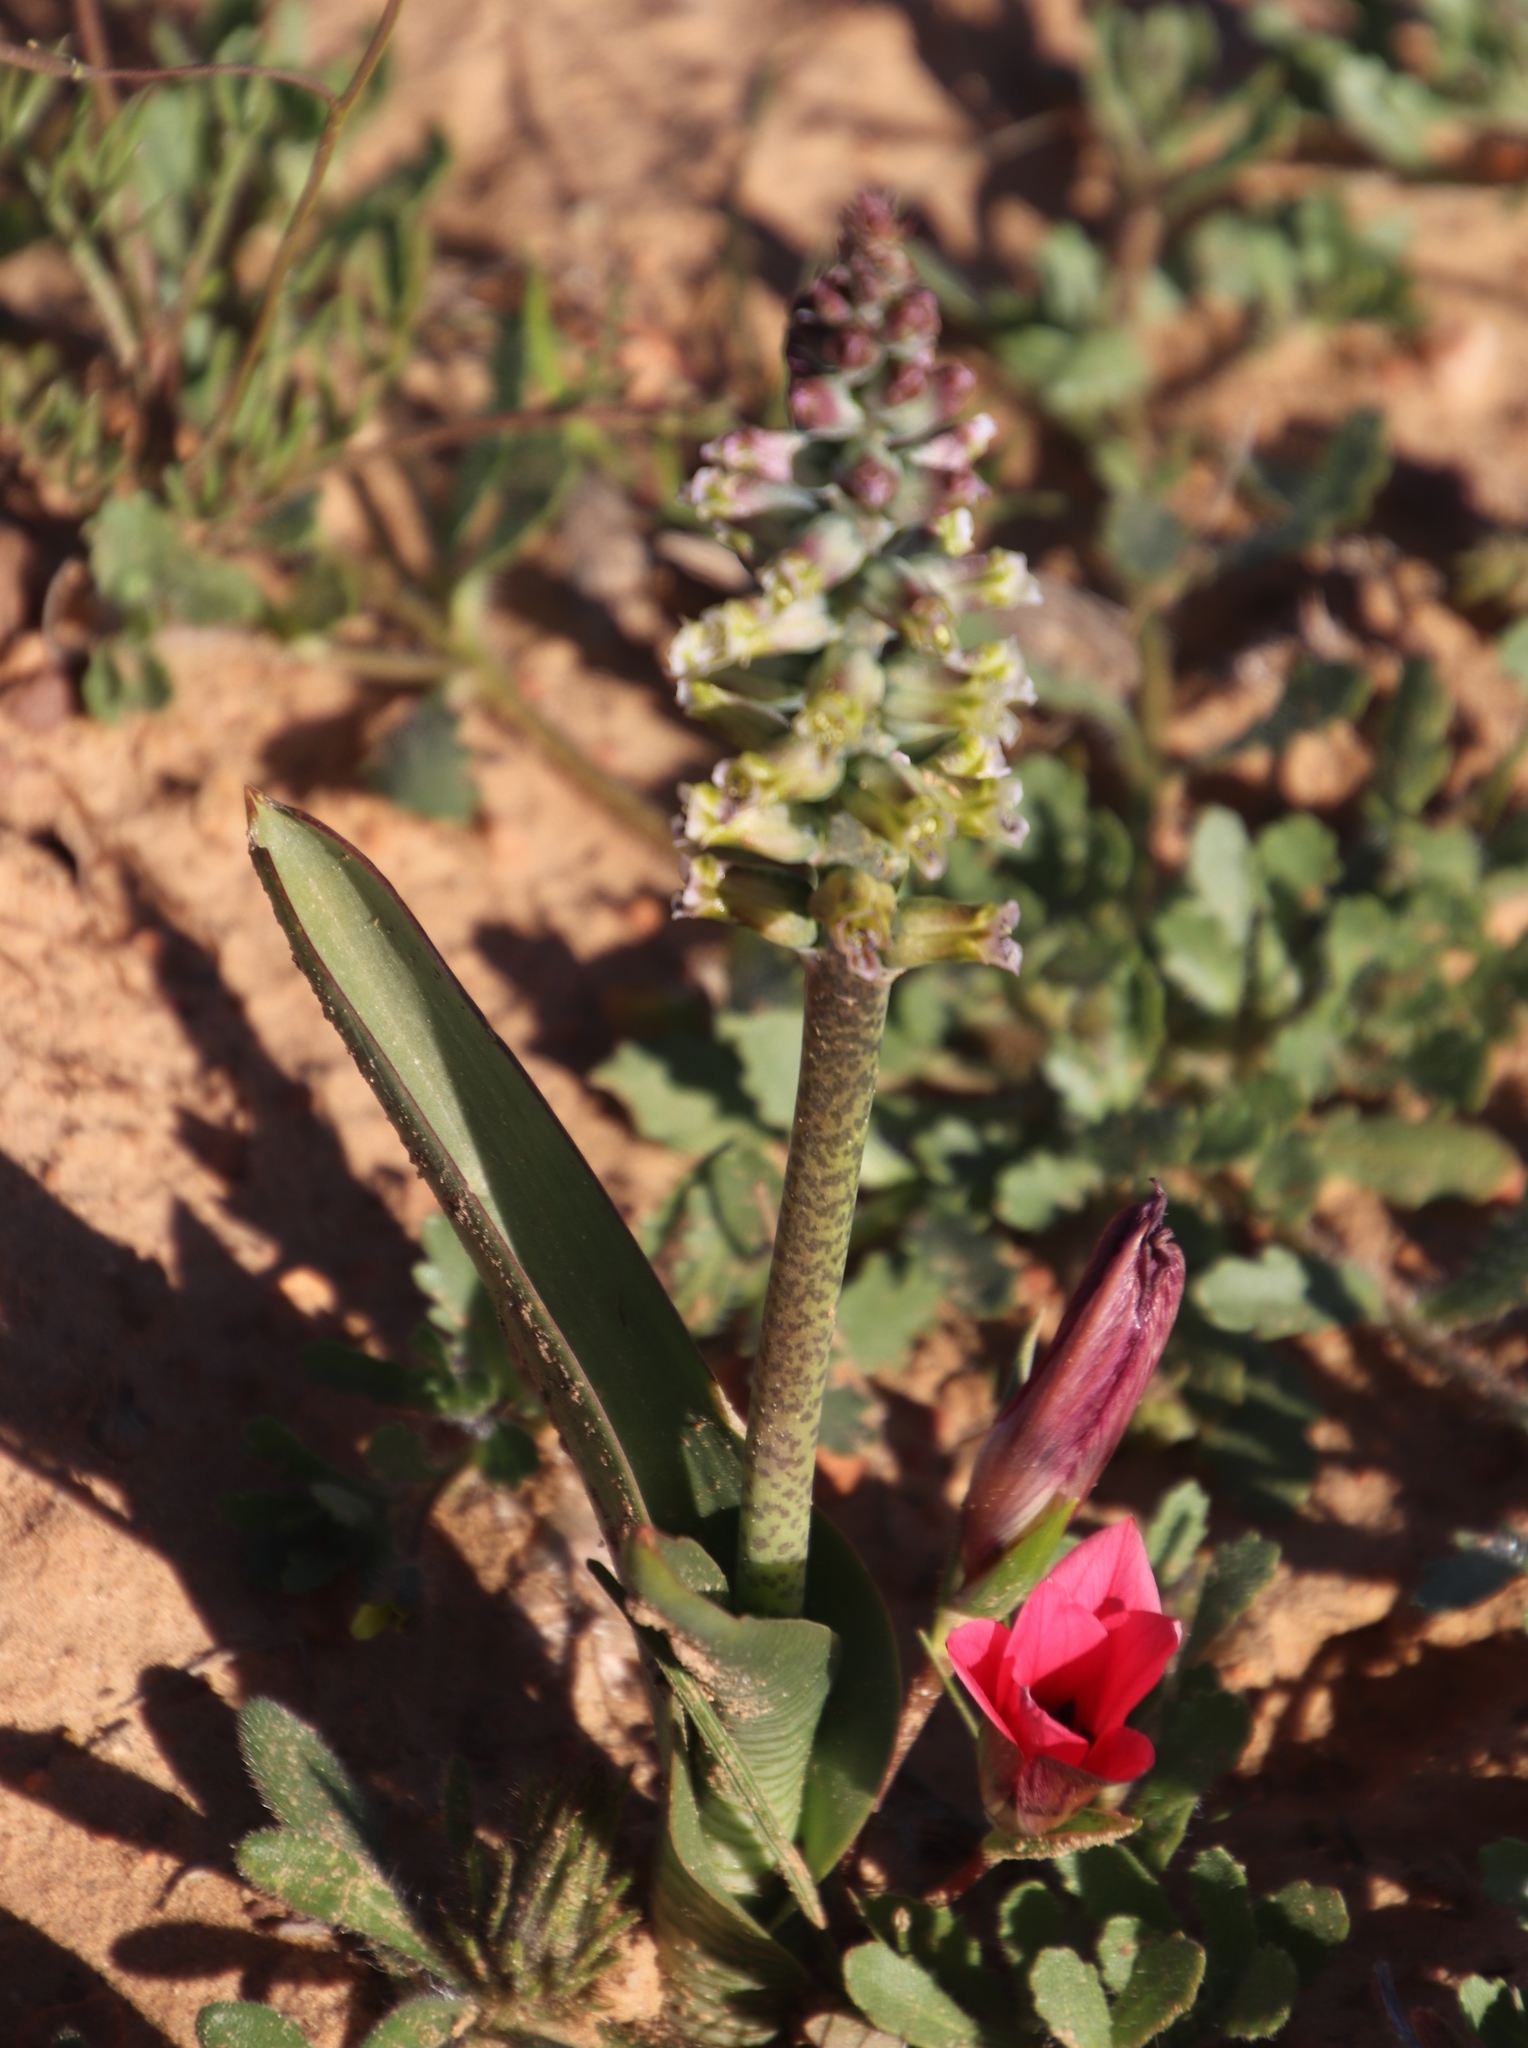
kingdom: Plantae
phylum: Tracheophyta
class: Liliopsida
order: Asparagales
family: Asparagaceae
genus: Lachenalia
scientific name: Lachenalia obscura
